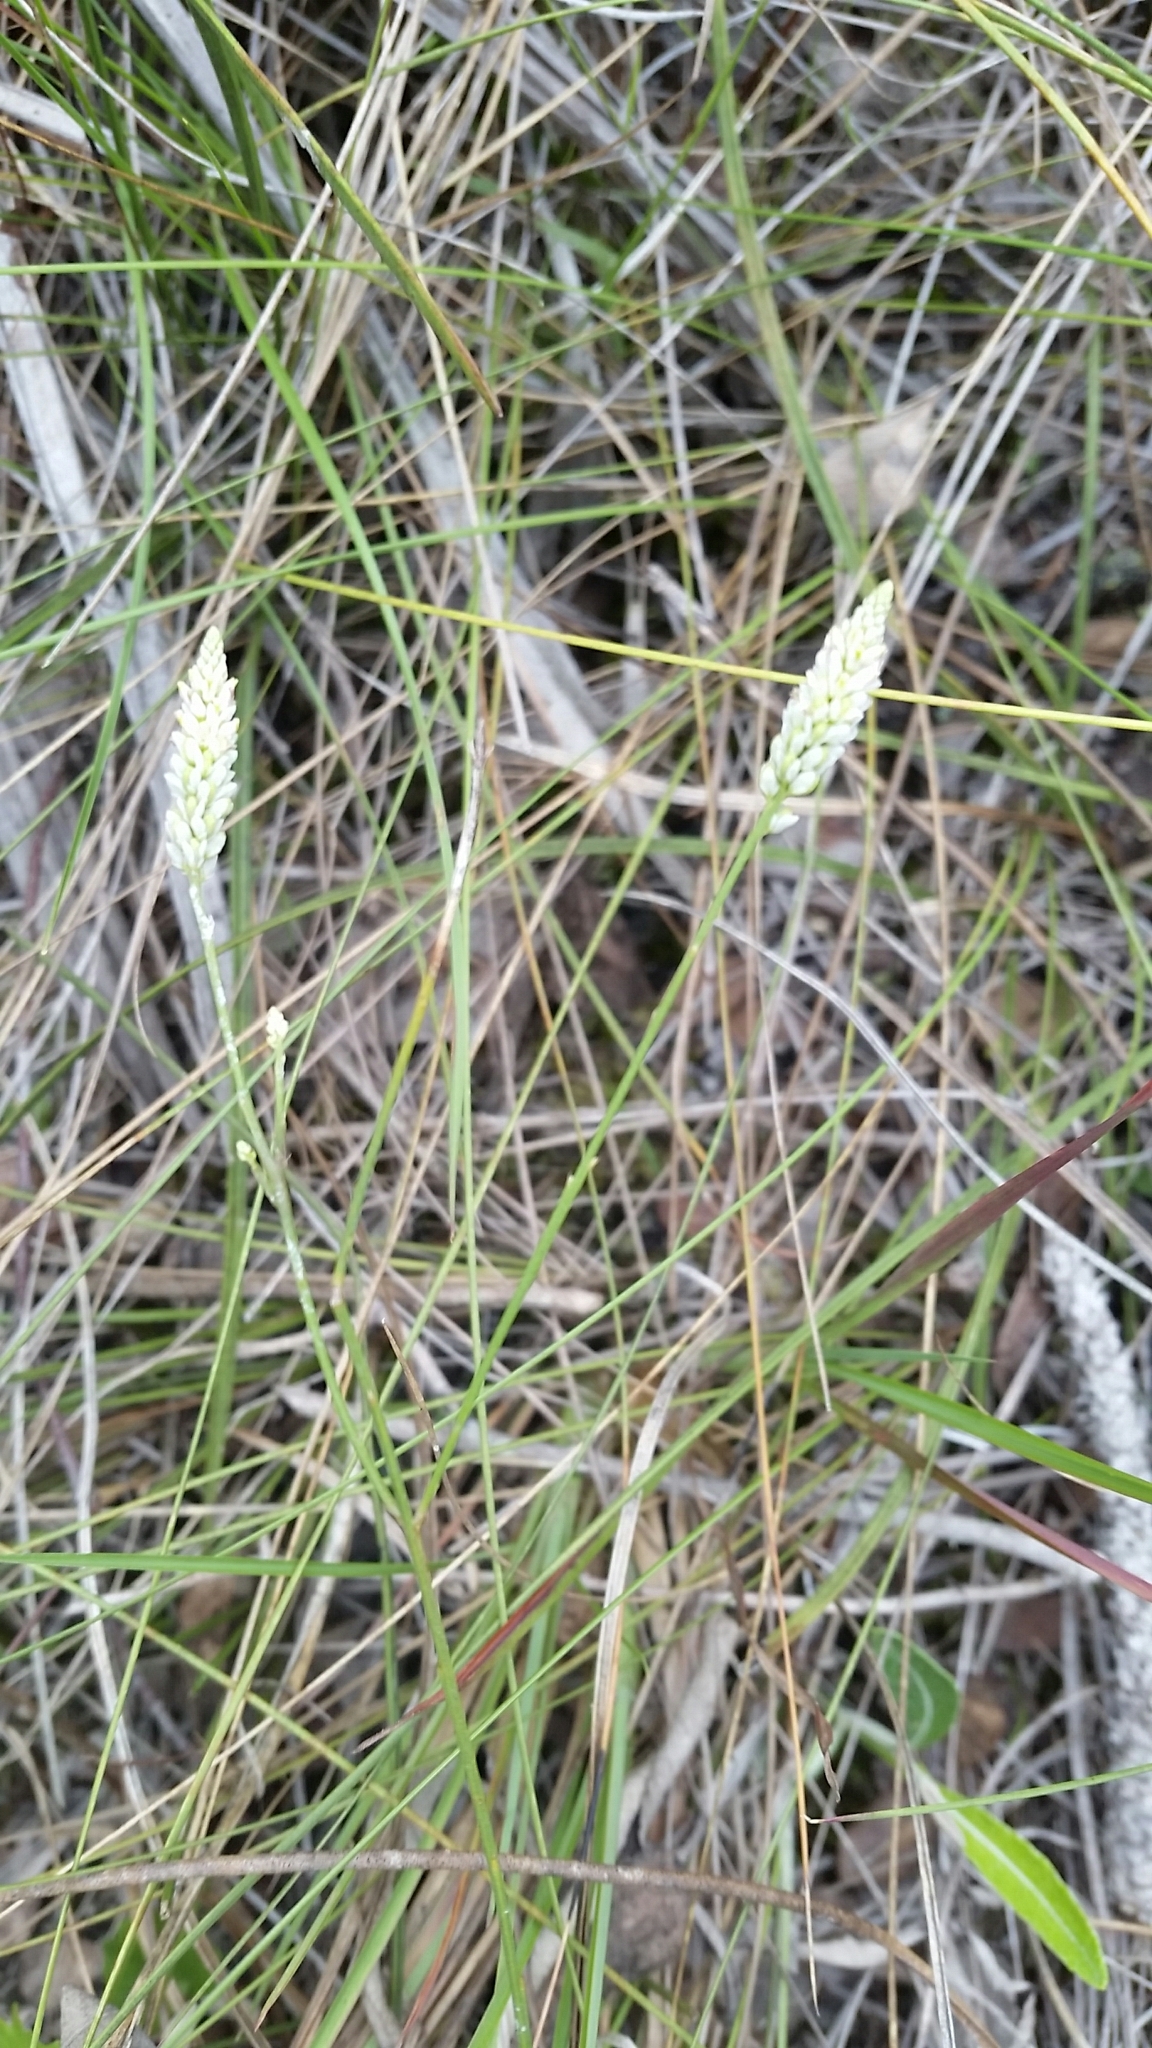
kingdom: Plantae
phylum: Tracheophyta
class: Magnoliopsida
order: Fabales
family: Polygalaceae
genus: Polygala
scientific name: Polygala setacea
